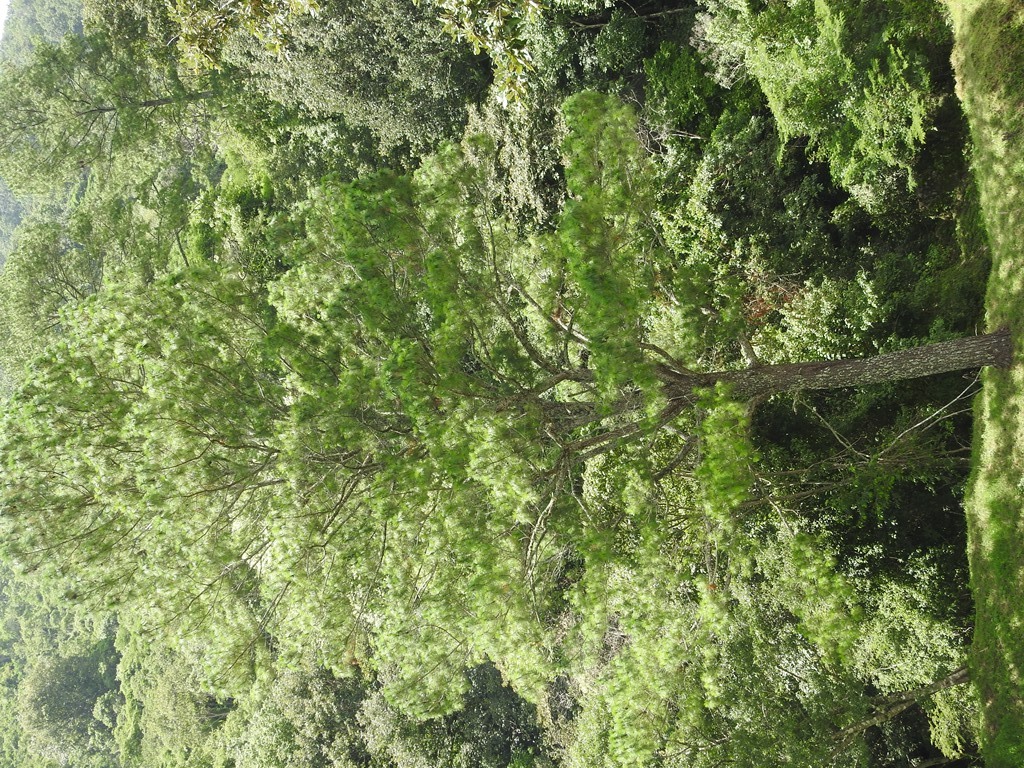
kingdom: Plantae
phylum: Tracheophyta
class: Pinopsida
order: Pinales
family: Pinaceae
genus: Pinus
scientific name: Pinus maximinoi
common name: Thin-leaf pine
